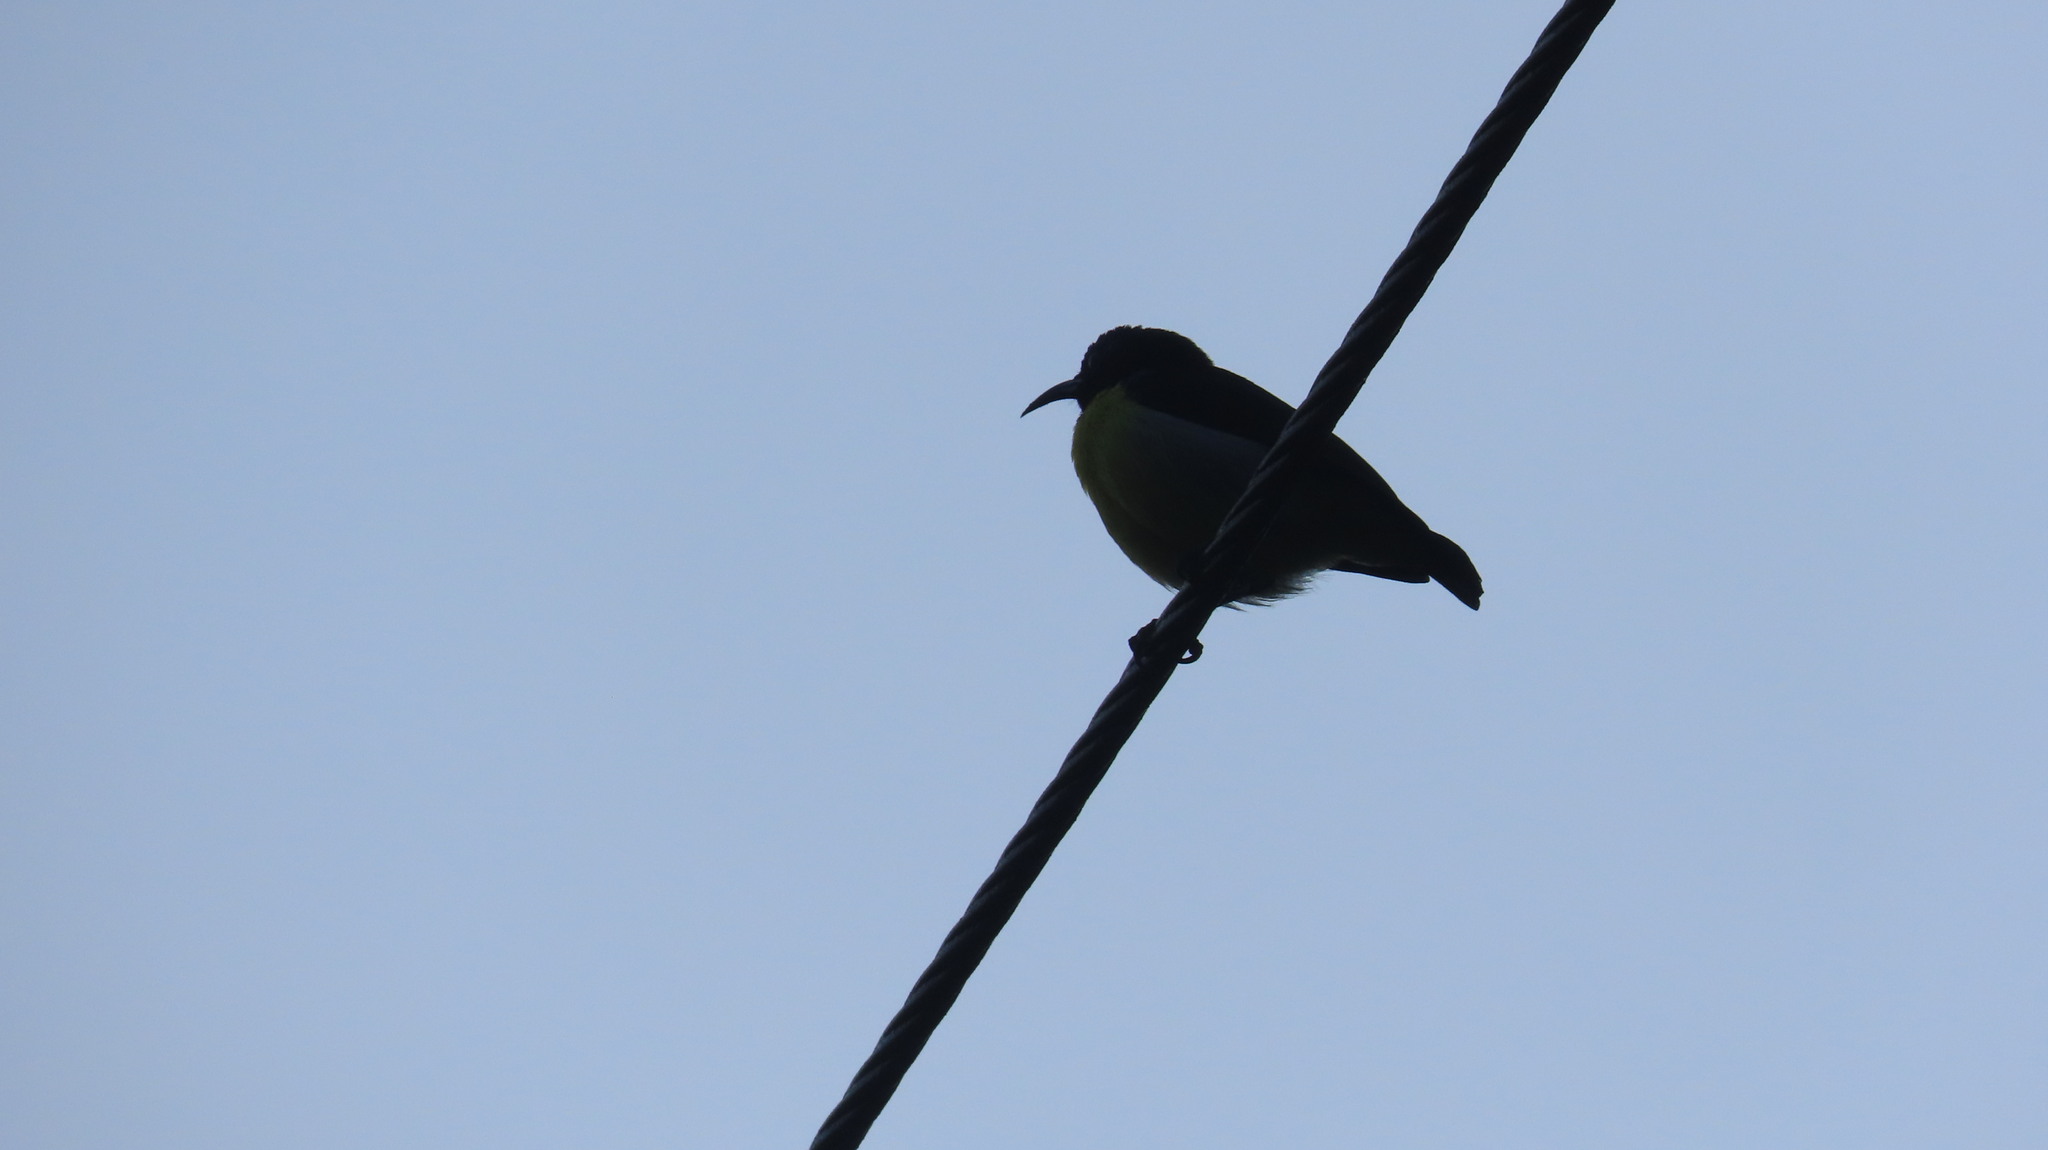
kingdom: Animalia
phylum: Chordata
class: Aves
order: Passeriformes
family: Nectariniidae
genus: Leptocoma
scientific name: Leptocoma zeylonica
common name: Purple-rumped sunbird
